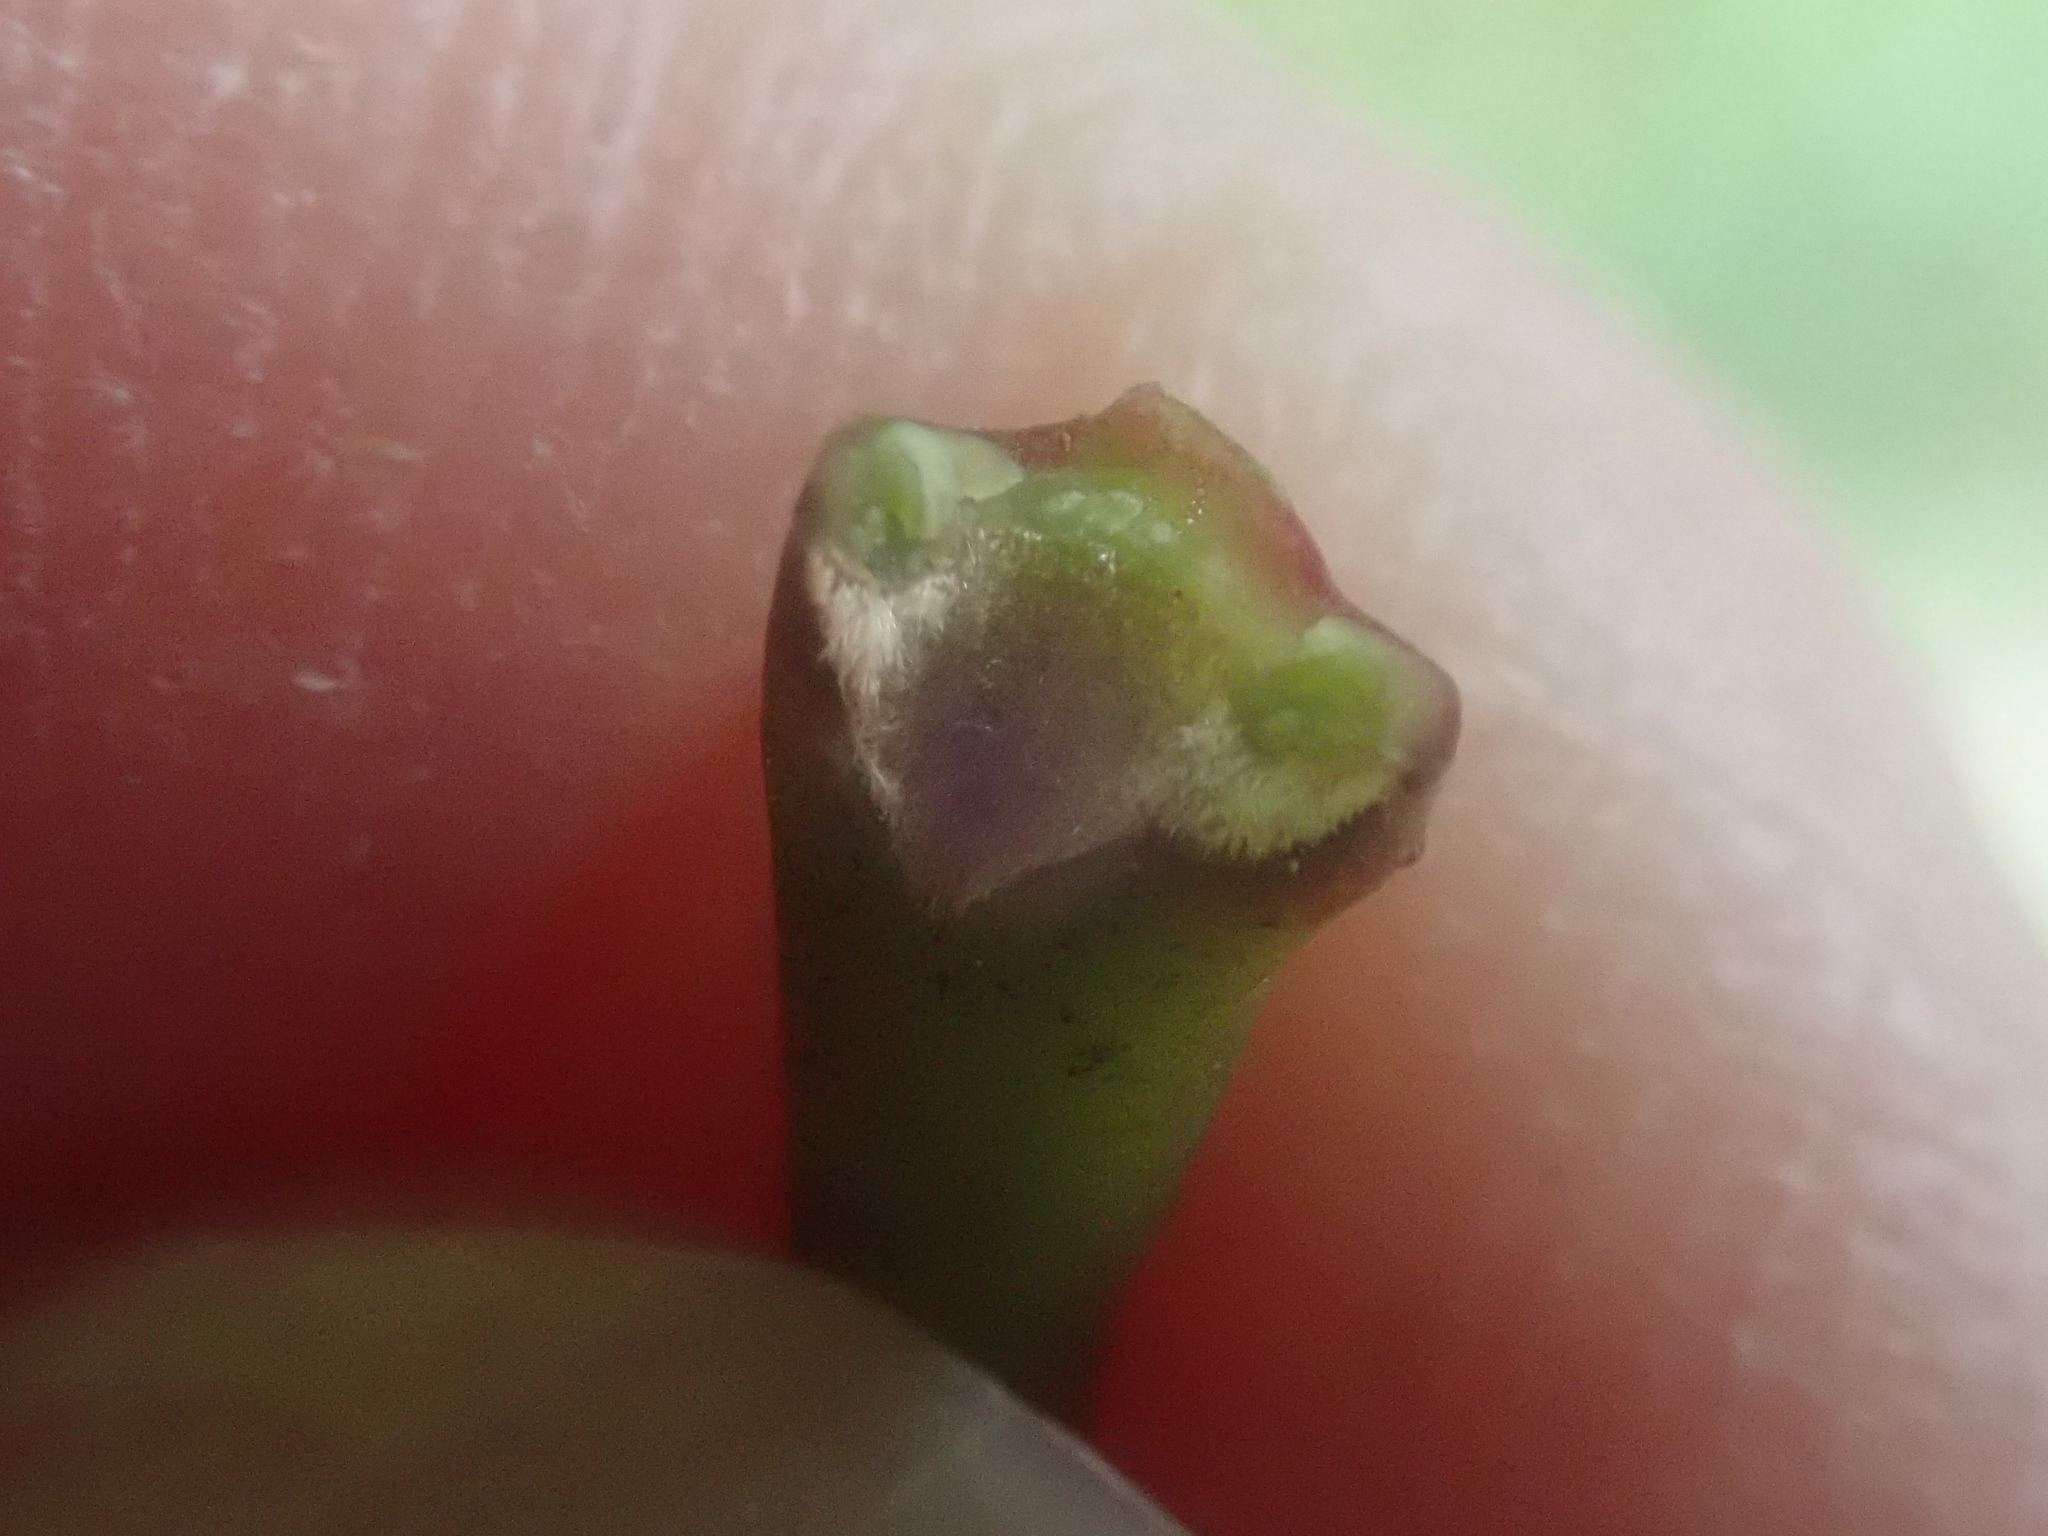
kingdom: Plantae
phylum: Tracheophyta
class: Magnoliopsida
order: Sapindales
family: Sapindaceae
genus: Acer
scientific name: Acer saccharum
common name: Sugar maple
